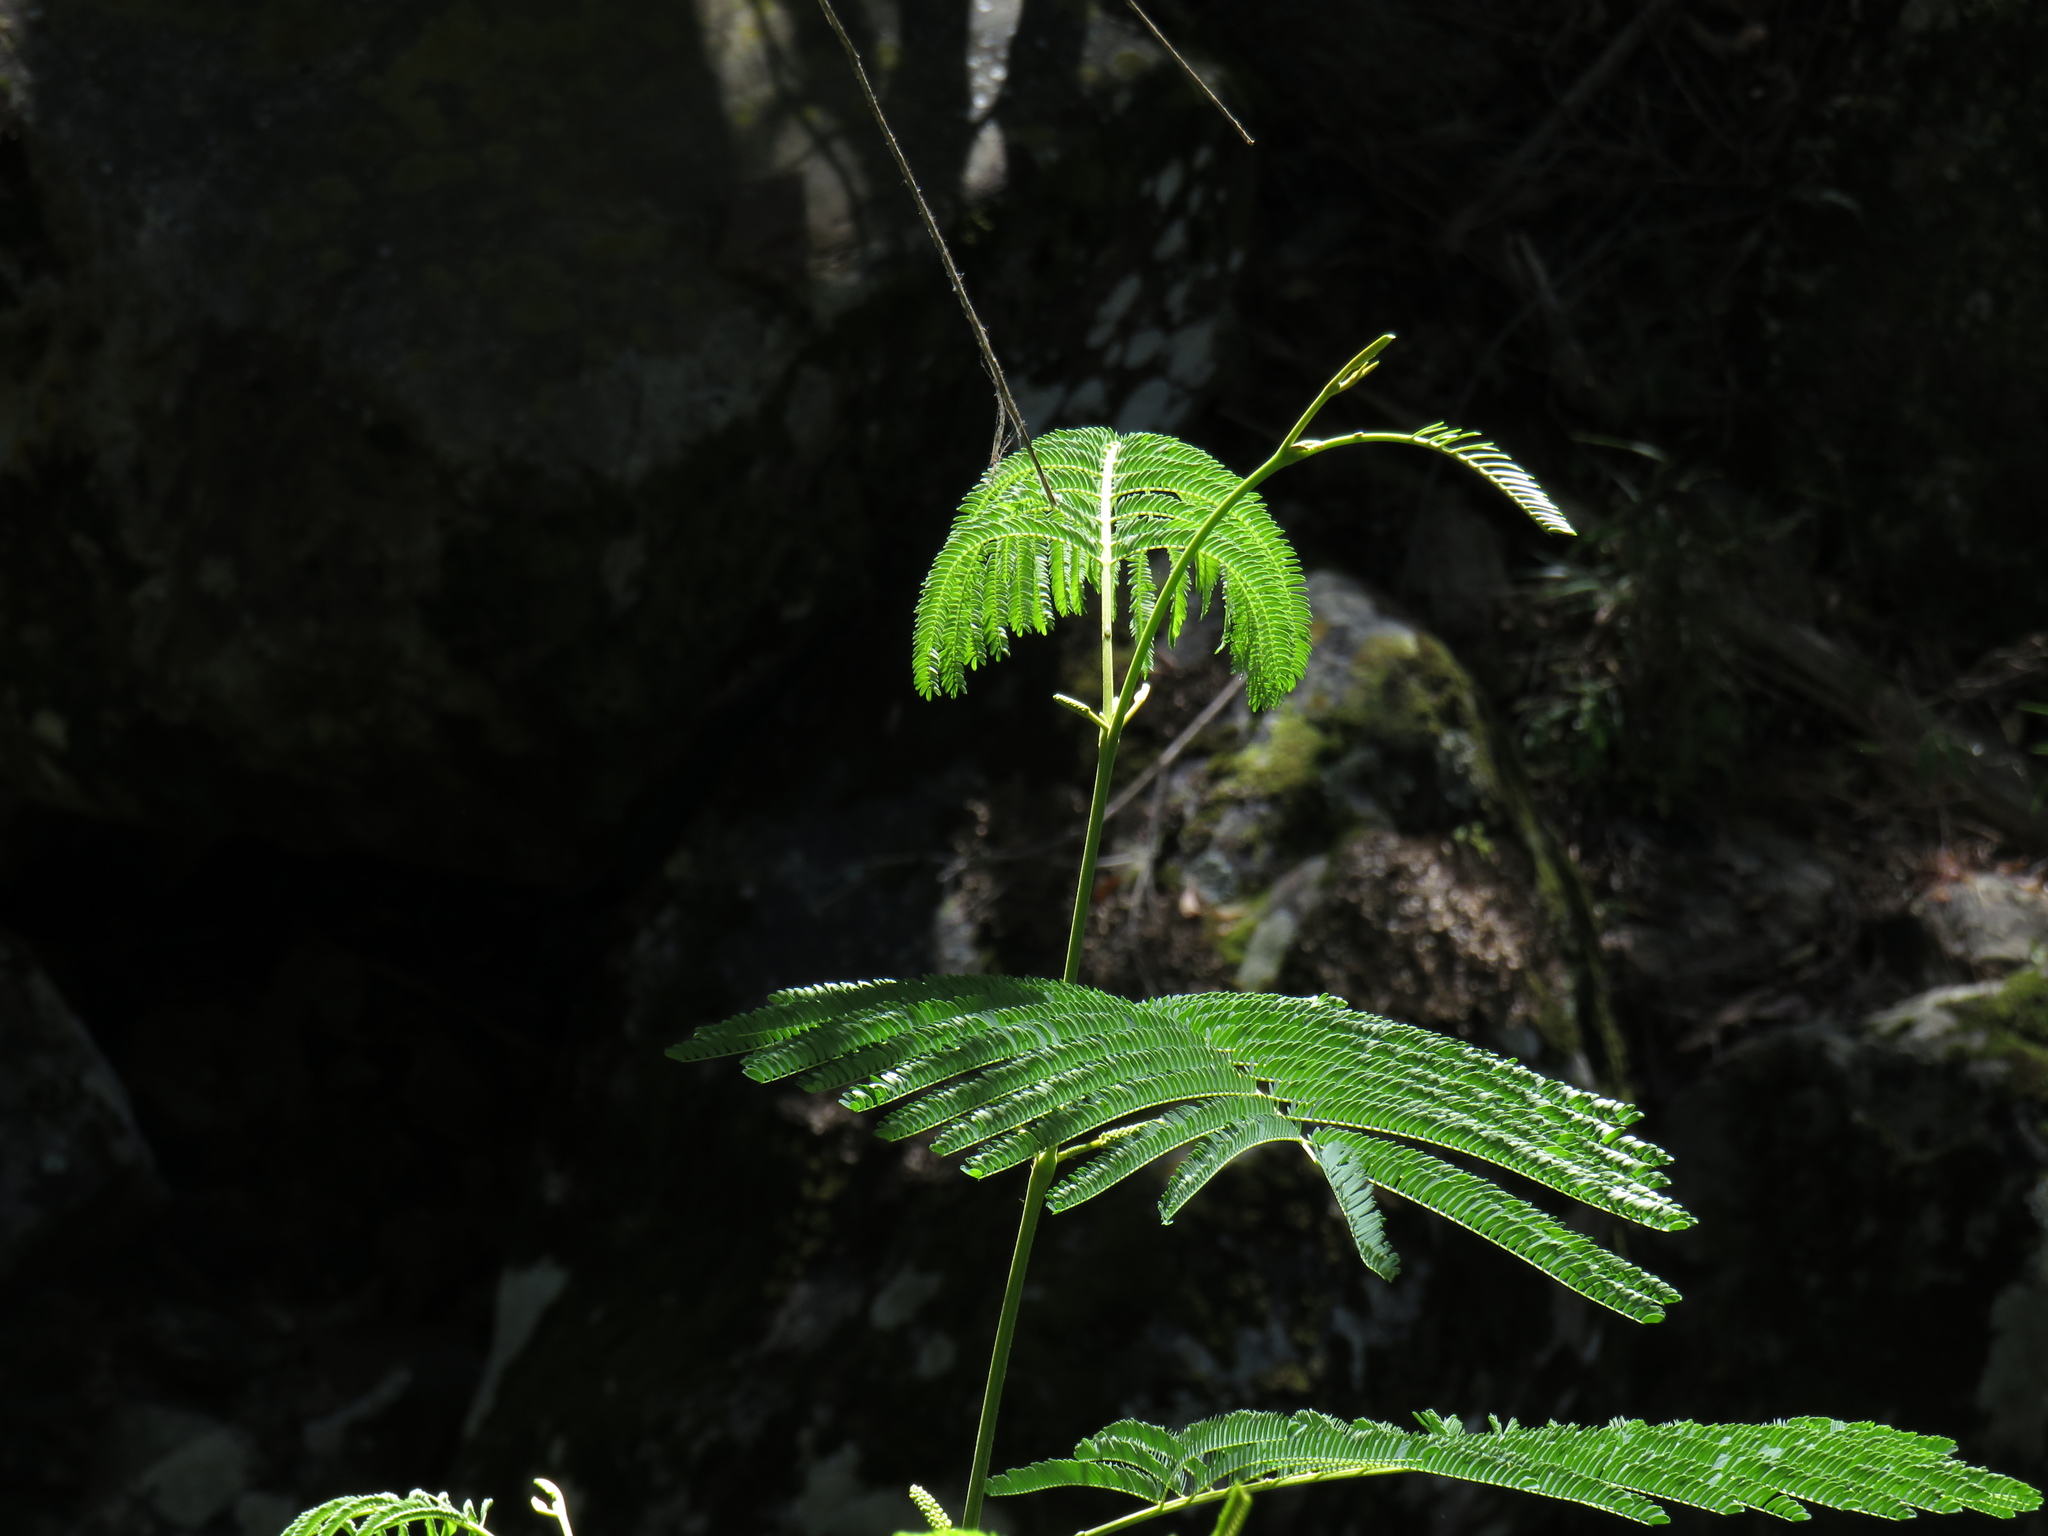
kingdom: Plantae
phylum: Tracheophyta
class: Magnoliopsida
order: Fabales
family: Fabaceae
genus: Paraserianthes
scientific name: Paraserianthes lophantha
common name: Plume albizia
